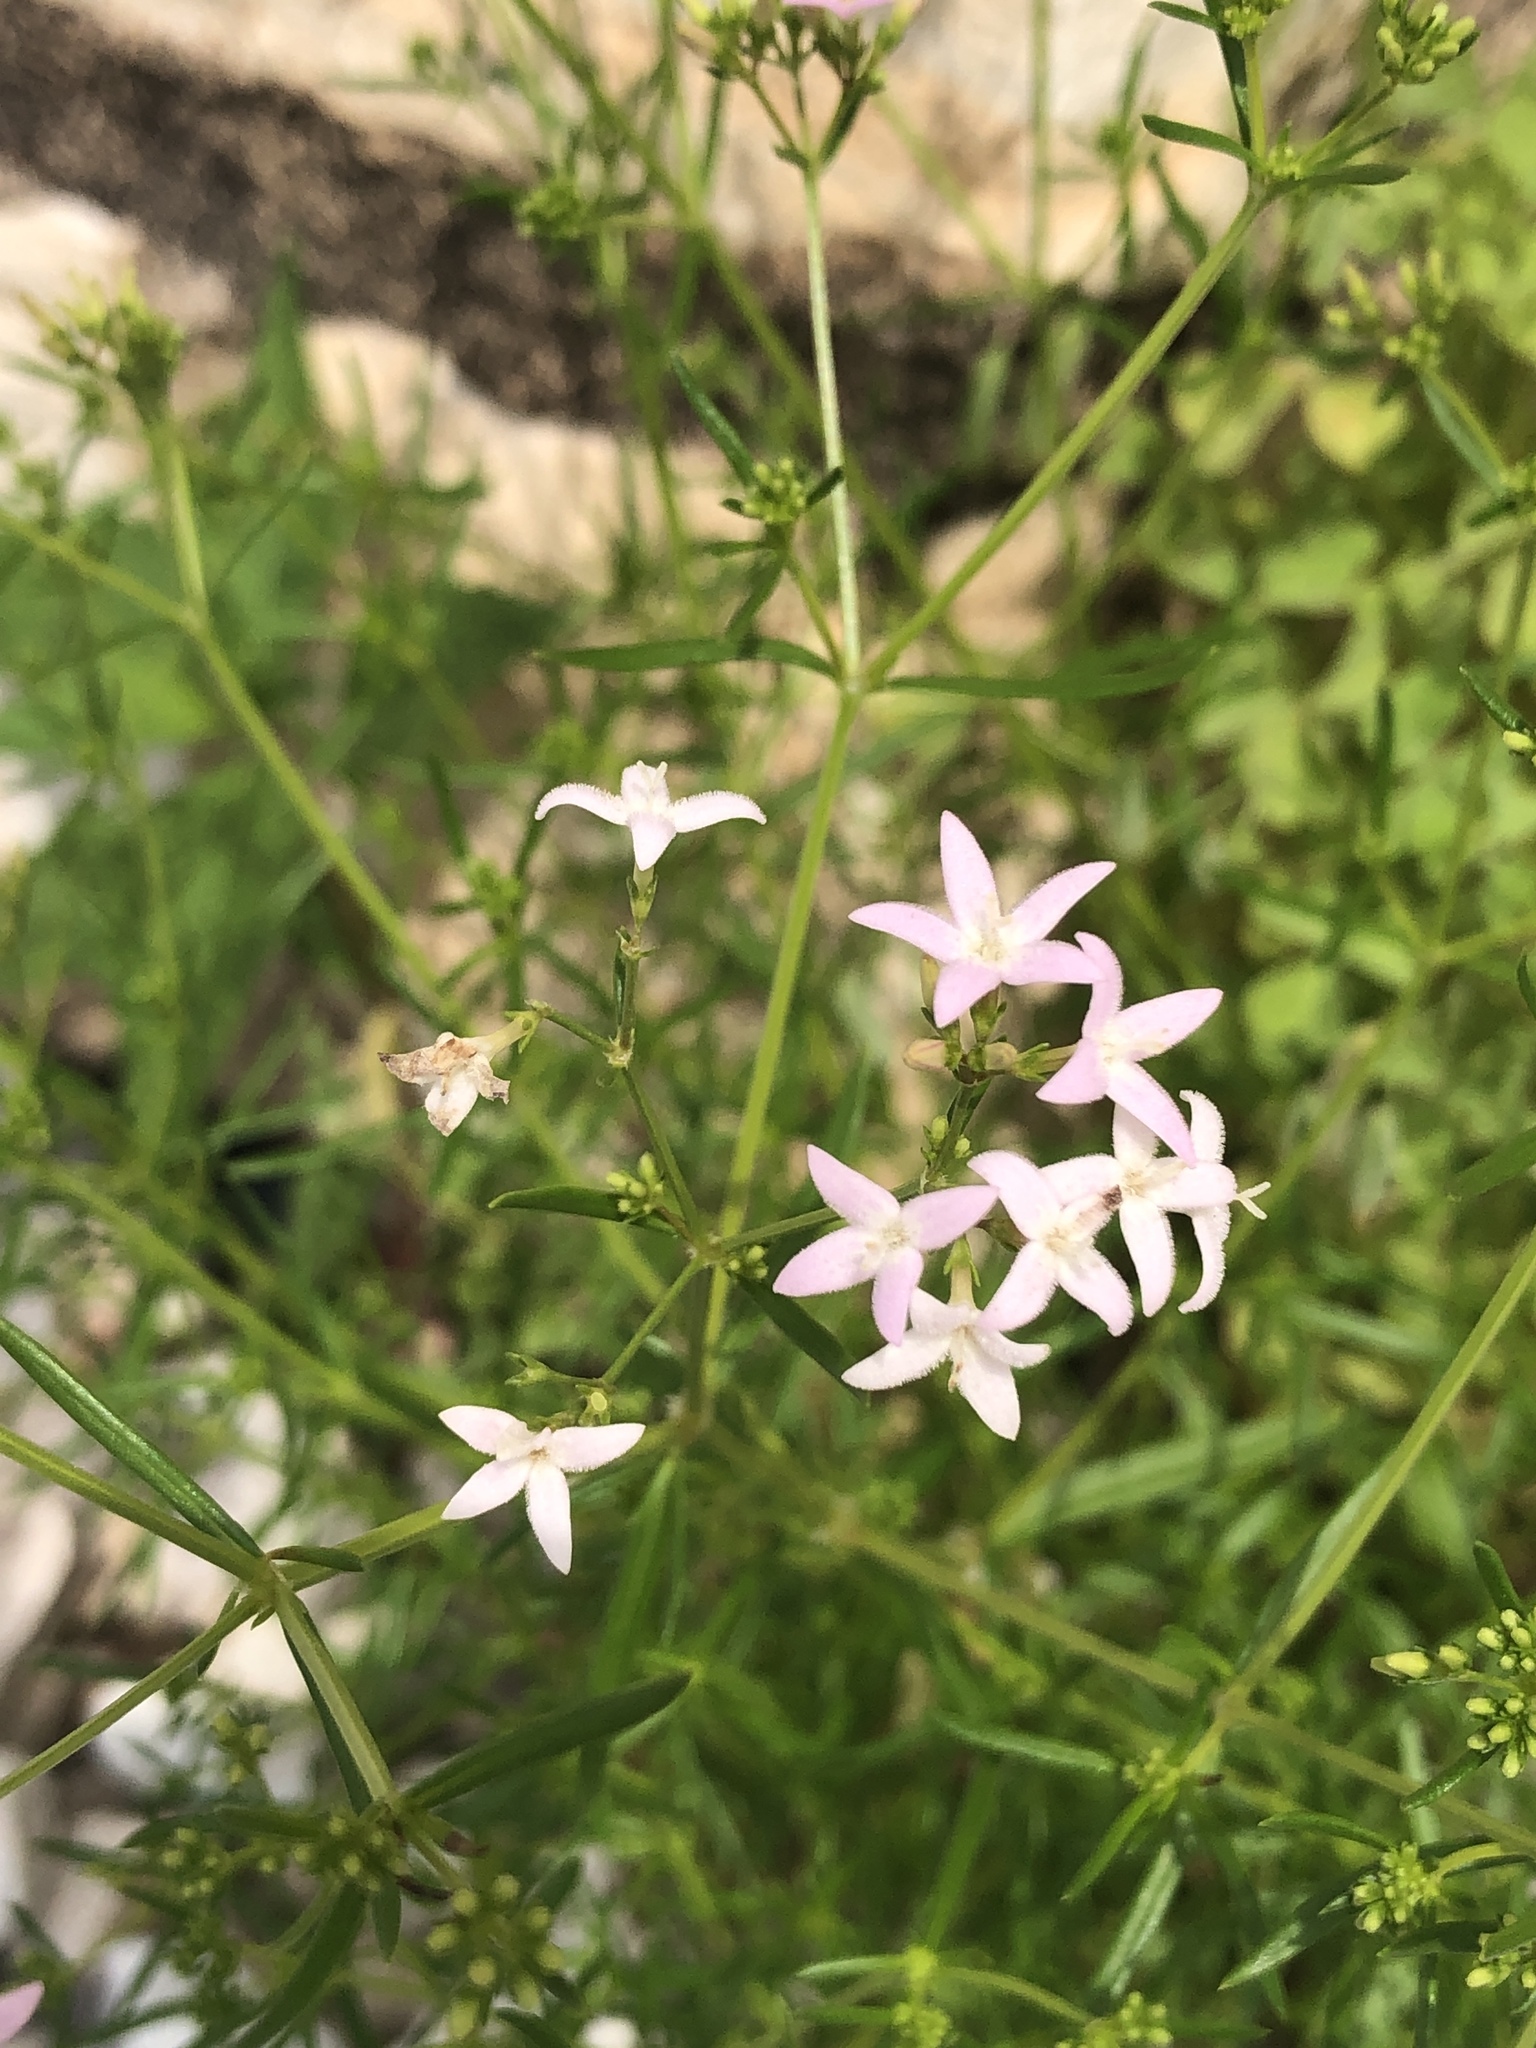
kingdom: Plantae
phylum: Tracheophyta
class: Magnoliopsida
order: Gentianales
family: Rubiaceae
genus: Stenaria
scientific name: Stenaria nigricans
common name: Diamondflowers
